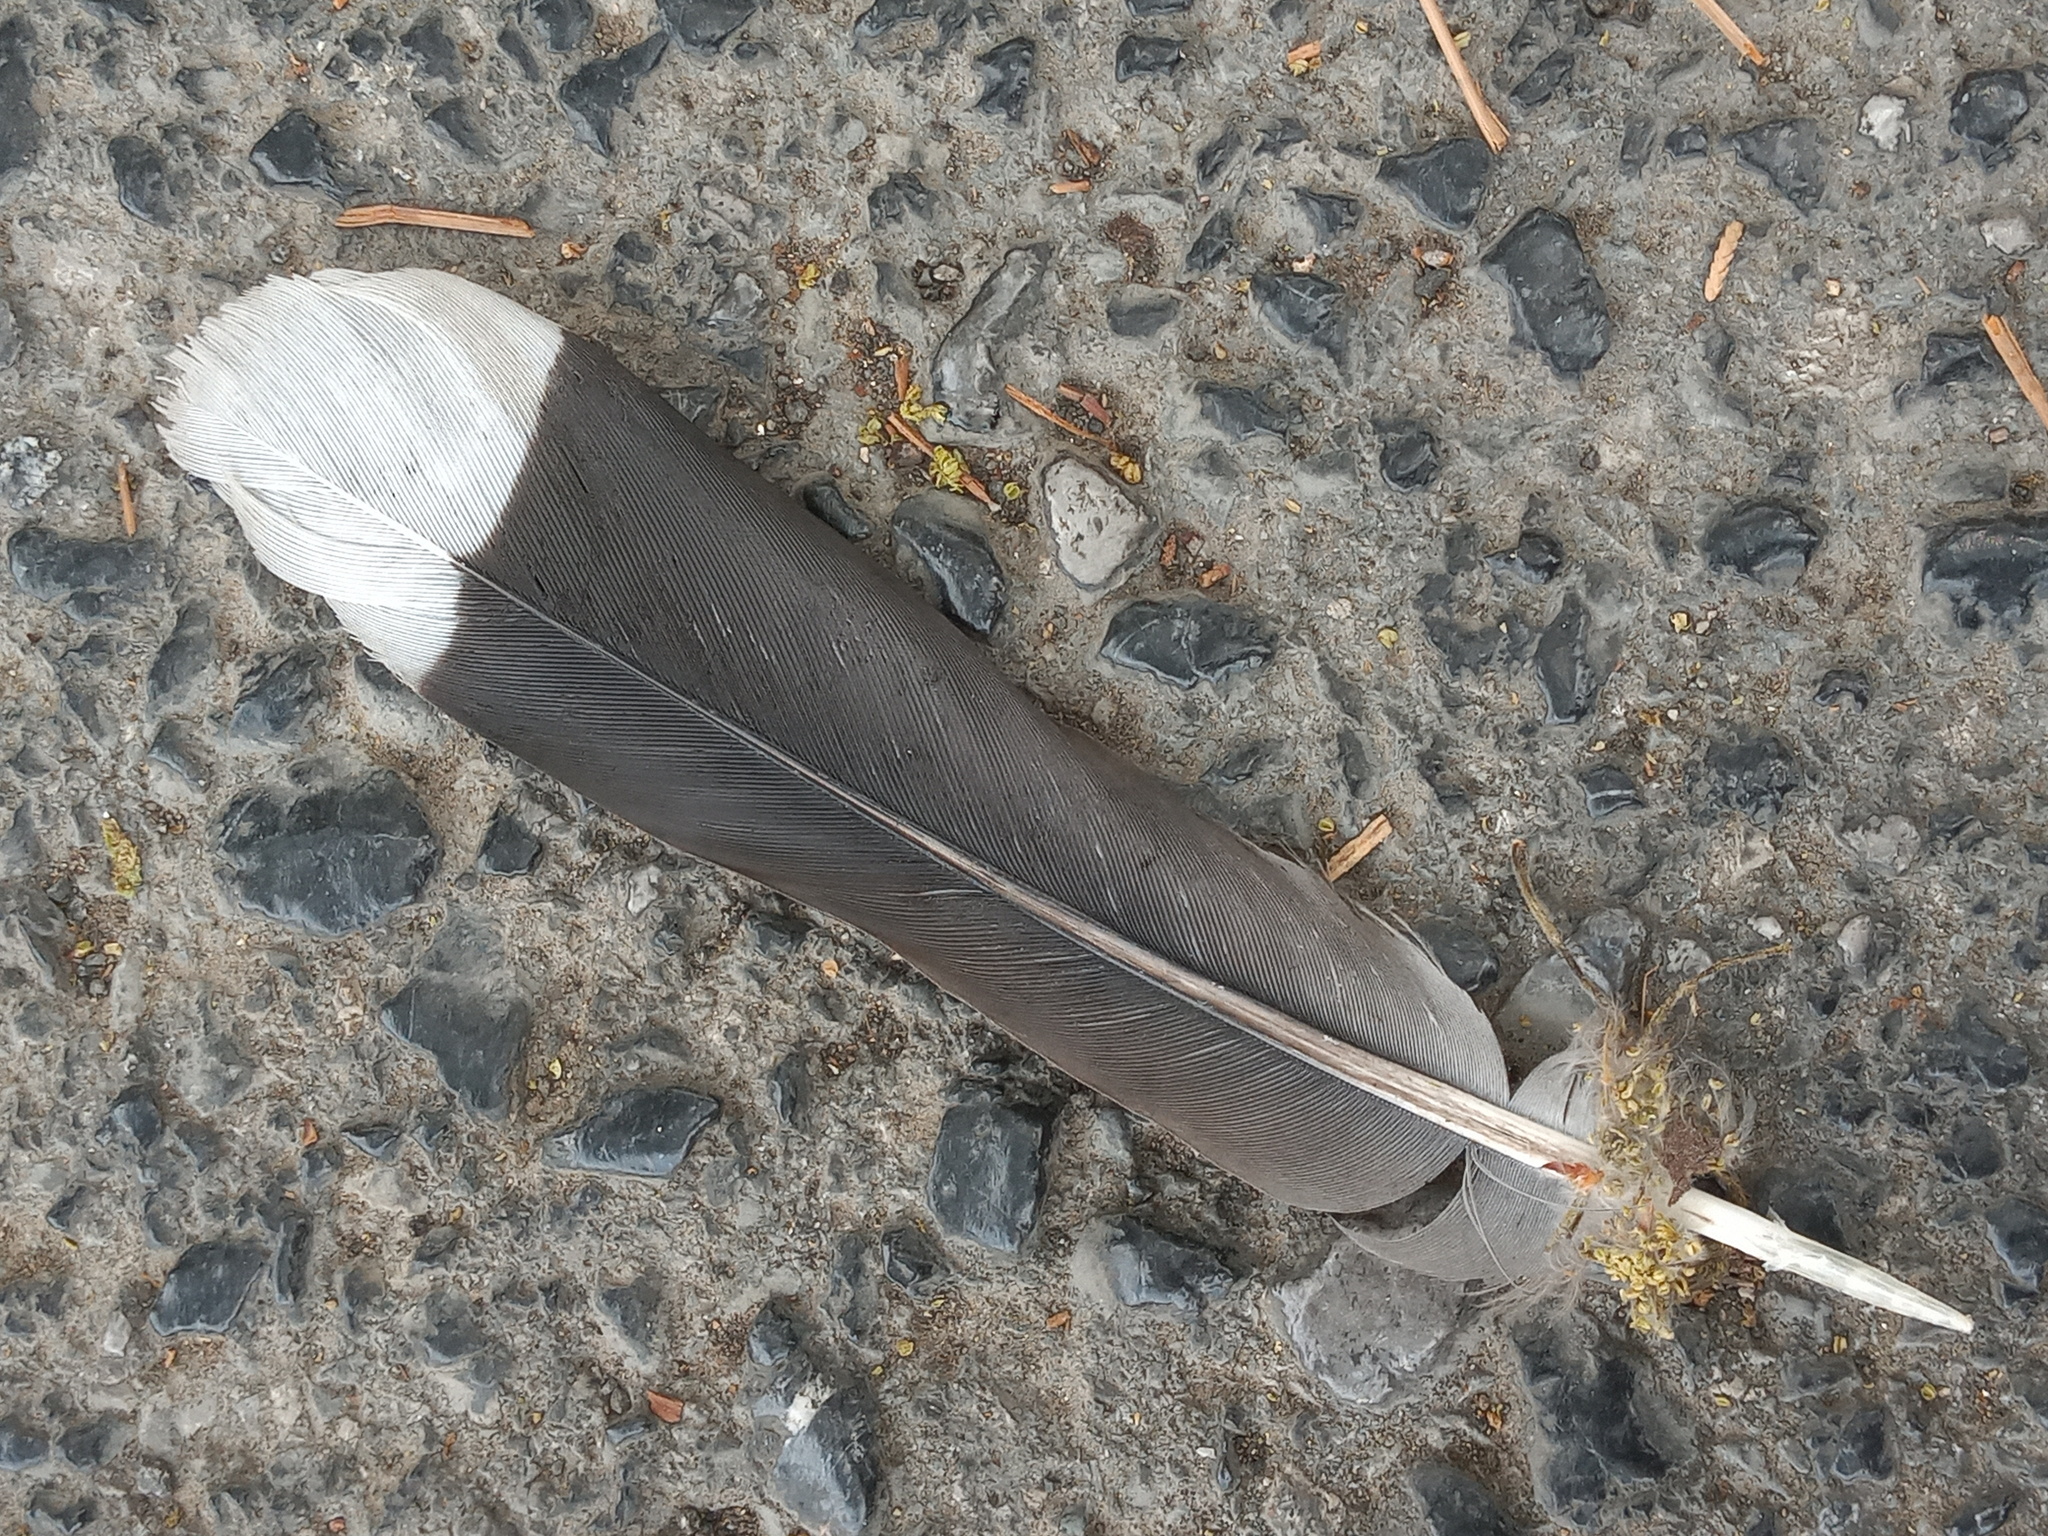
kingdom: Animalia
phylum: Chordata
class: Aves
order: Columbiformes
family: Columbidae
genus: Zenaida
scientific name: Zenaida asiatica
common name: White-winged dove
